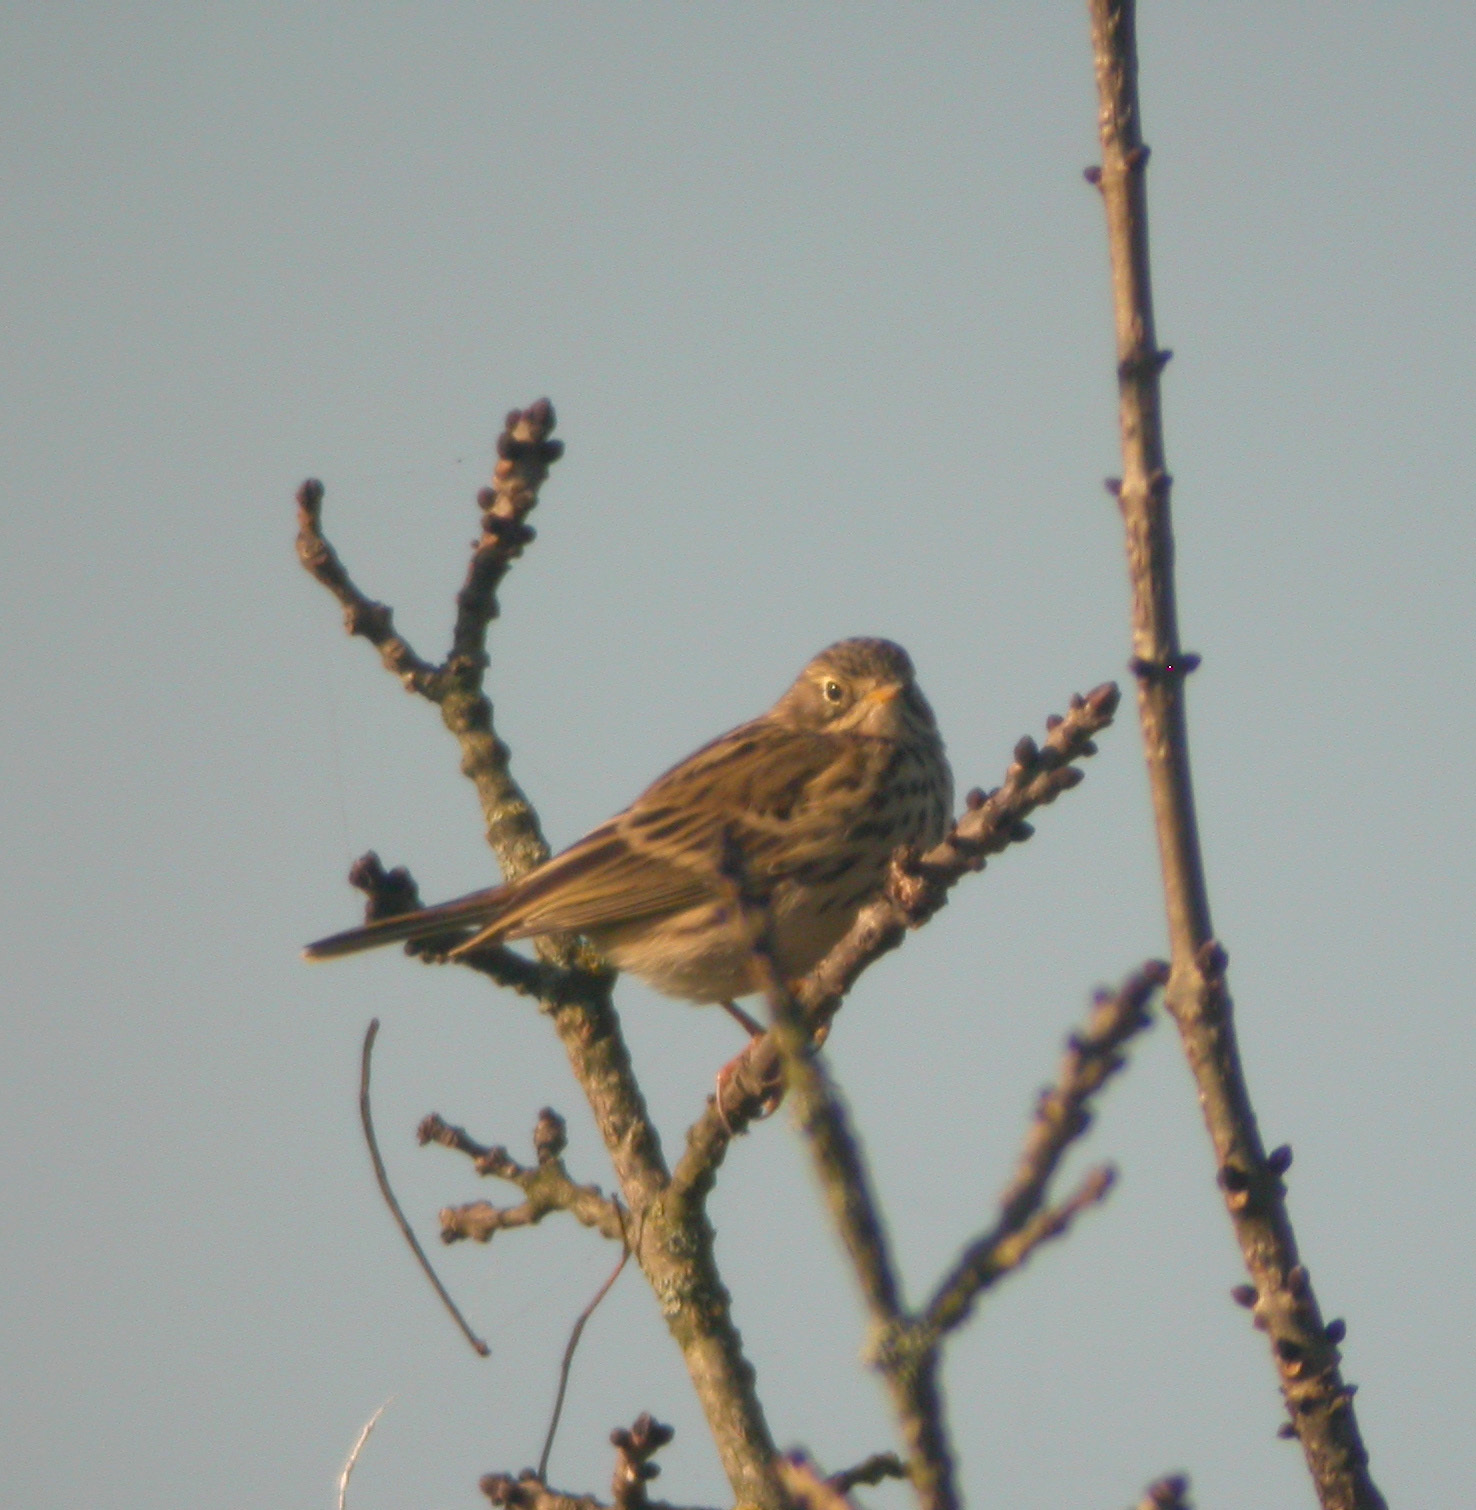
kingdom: Animalia
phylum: Chordata
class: Aves
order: Passeriformes
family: Motacillidae
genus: Anthus
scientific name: Anthus pratensis
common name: Meadow pipit
